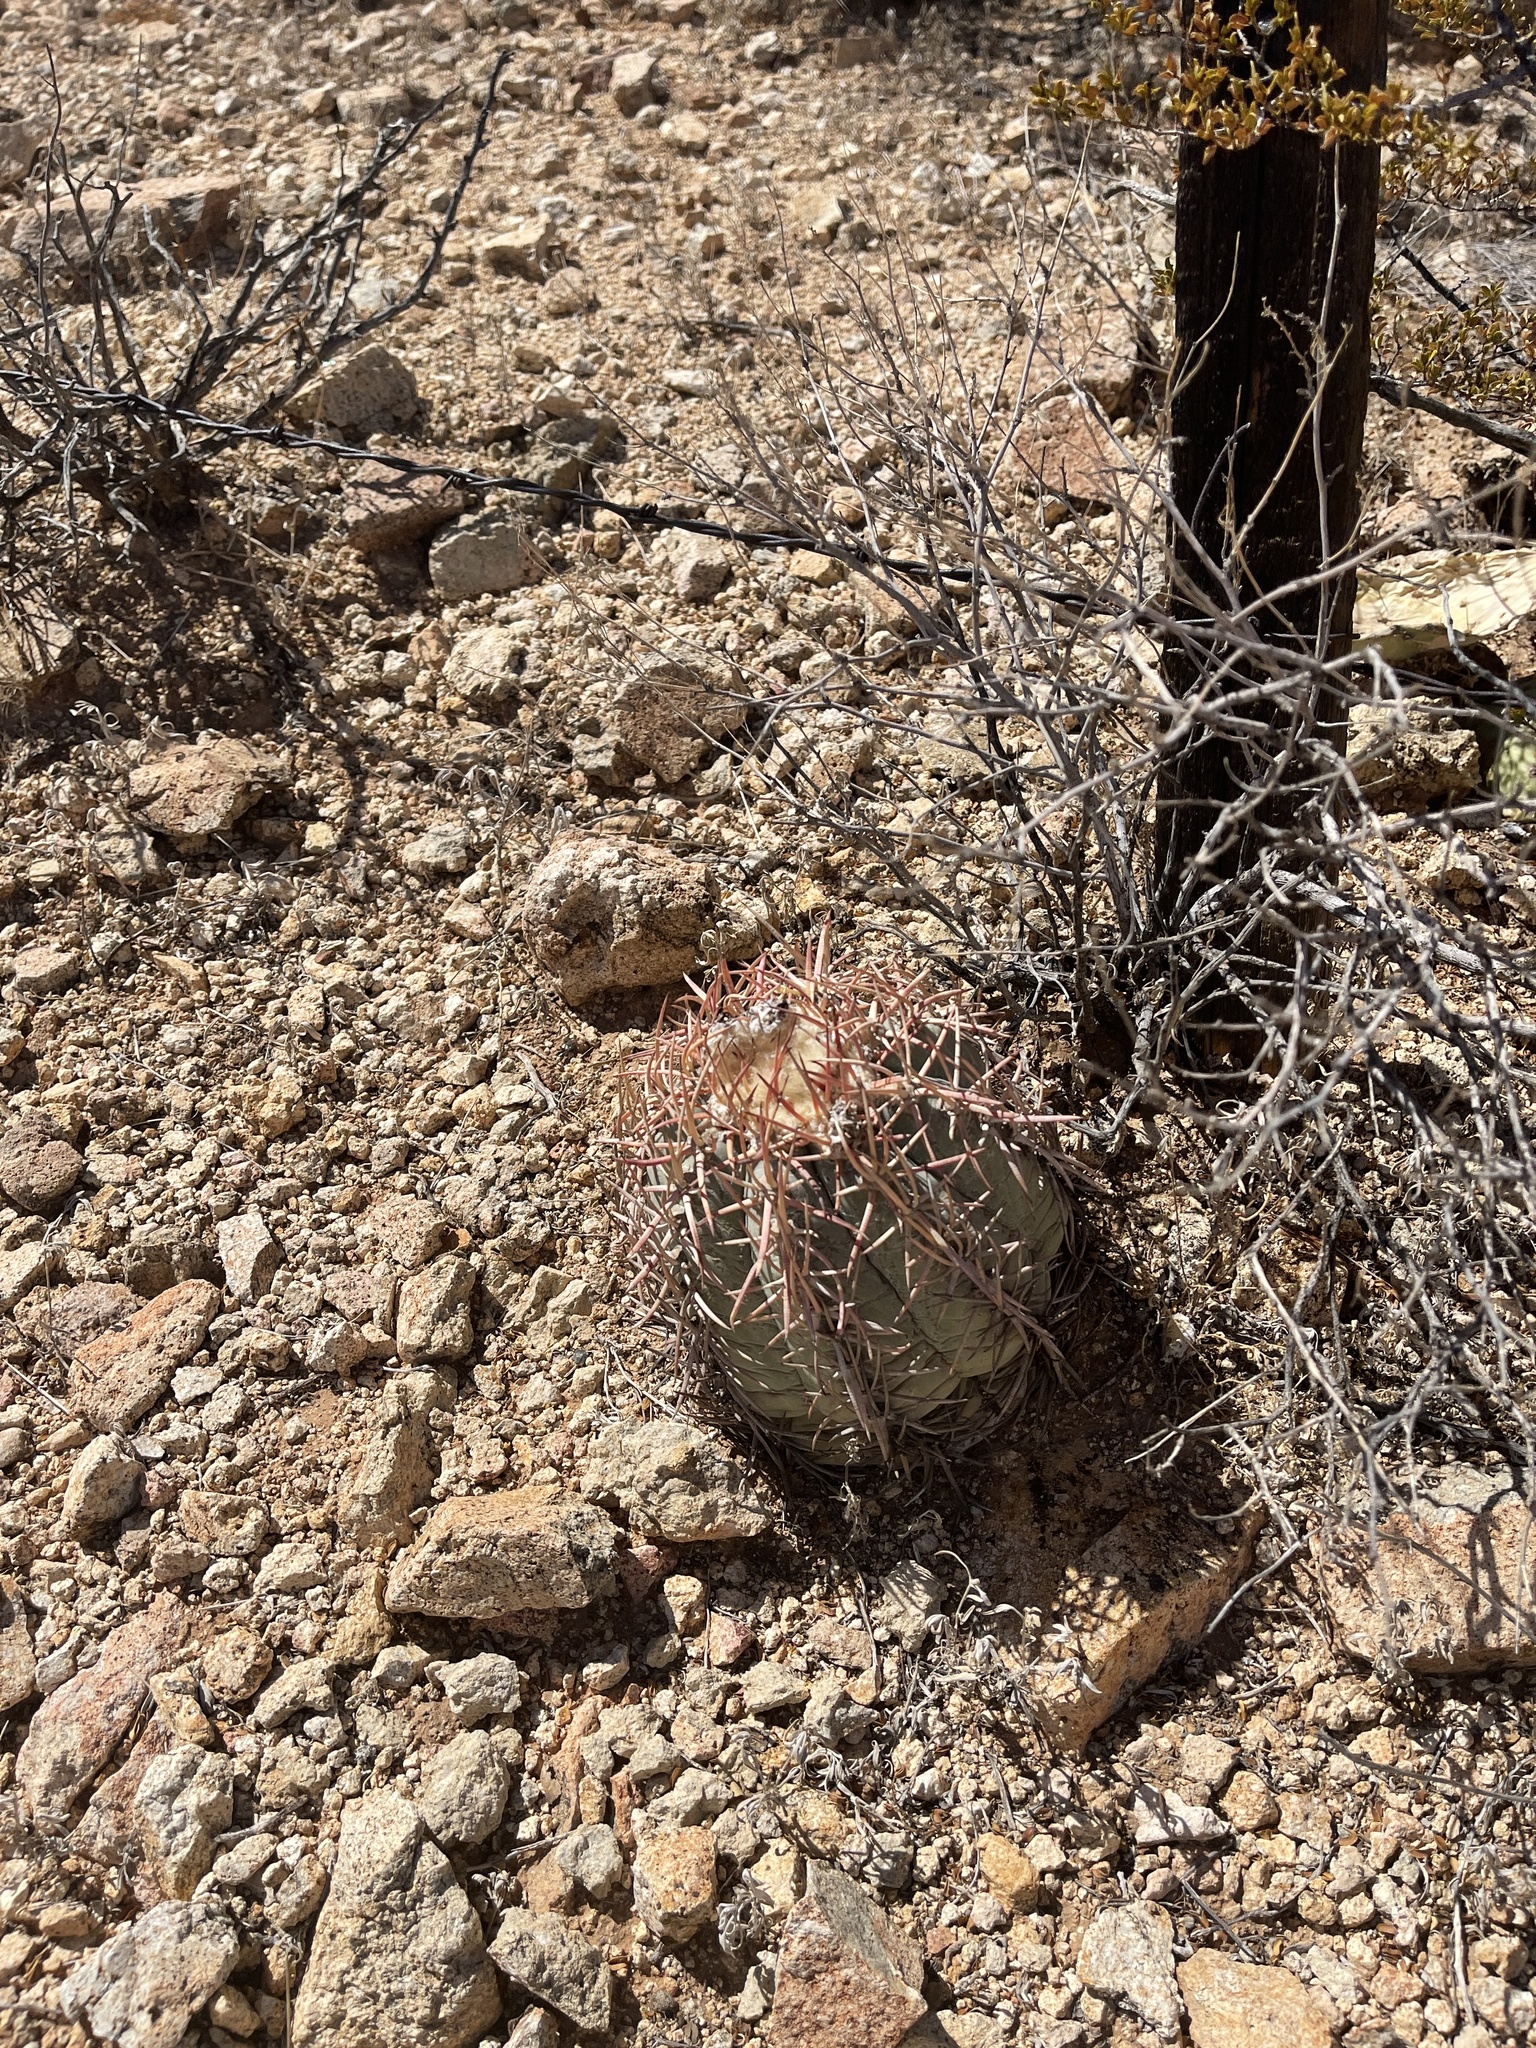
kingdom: Plantae
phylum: Tracheophyta
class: Magnoliopsida
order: Caryophyllales
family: Cactaceae
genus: Echinocactus
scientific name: Echinocactus horizonthalonius
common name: Devilshead
